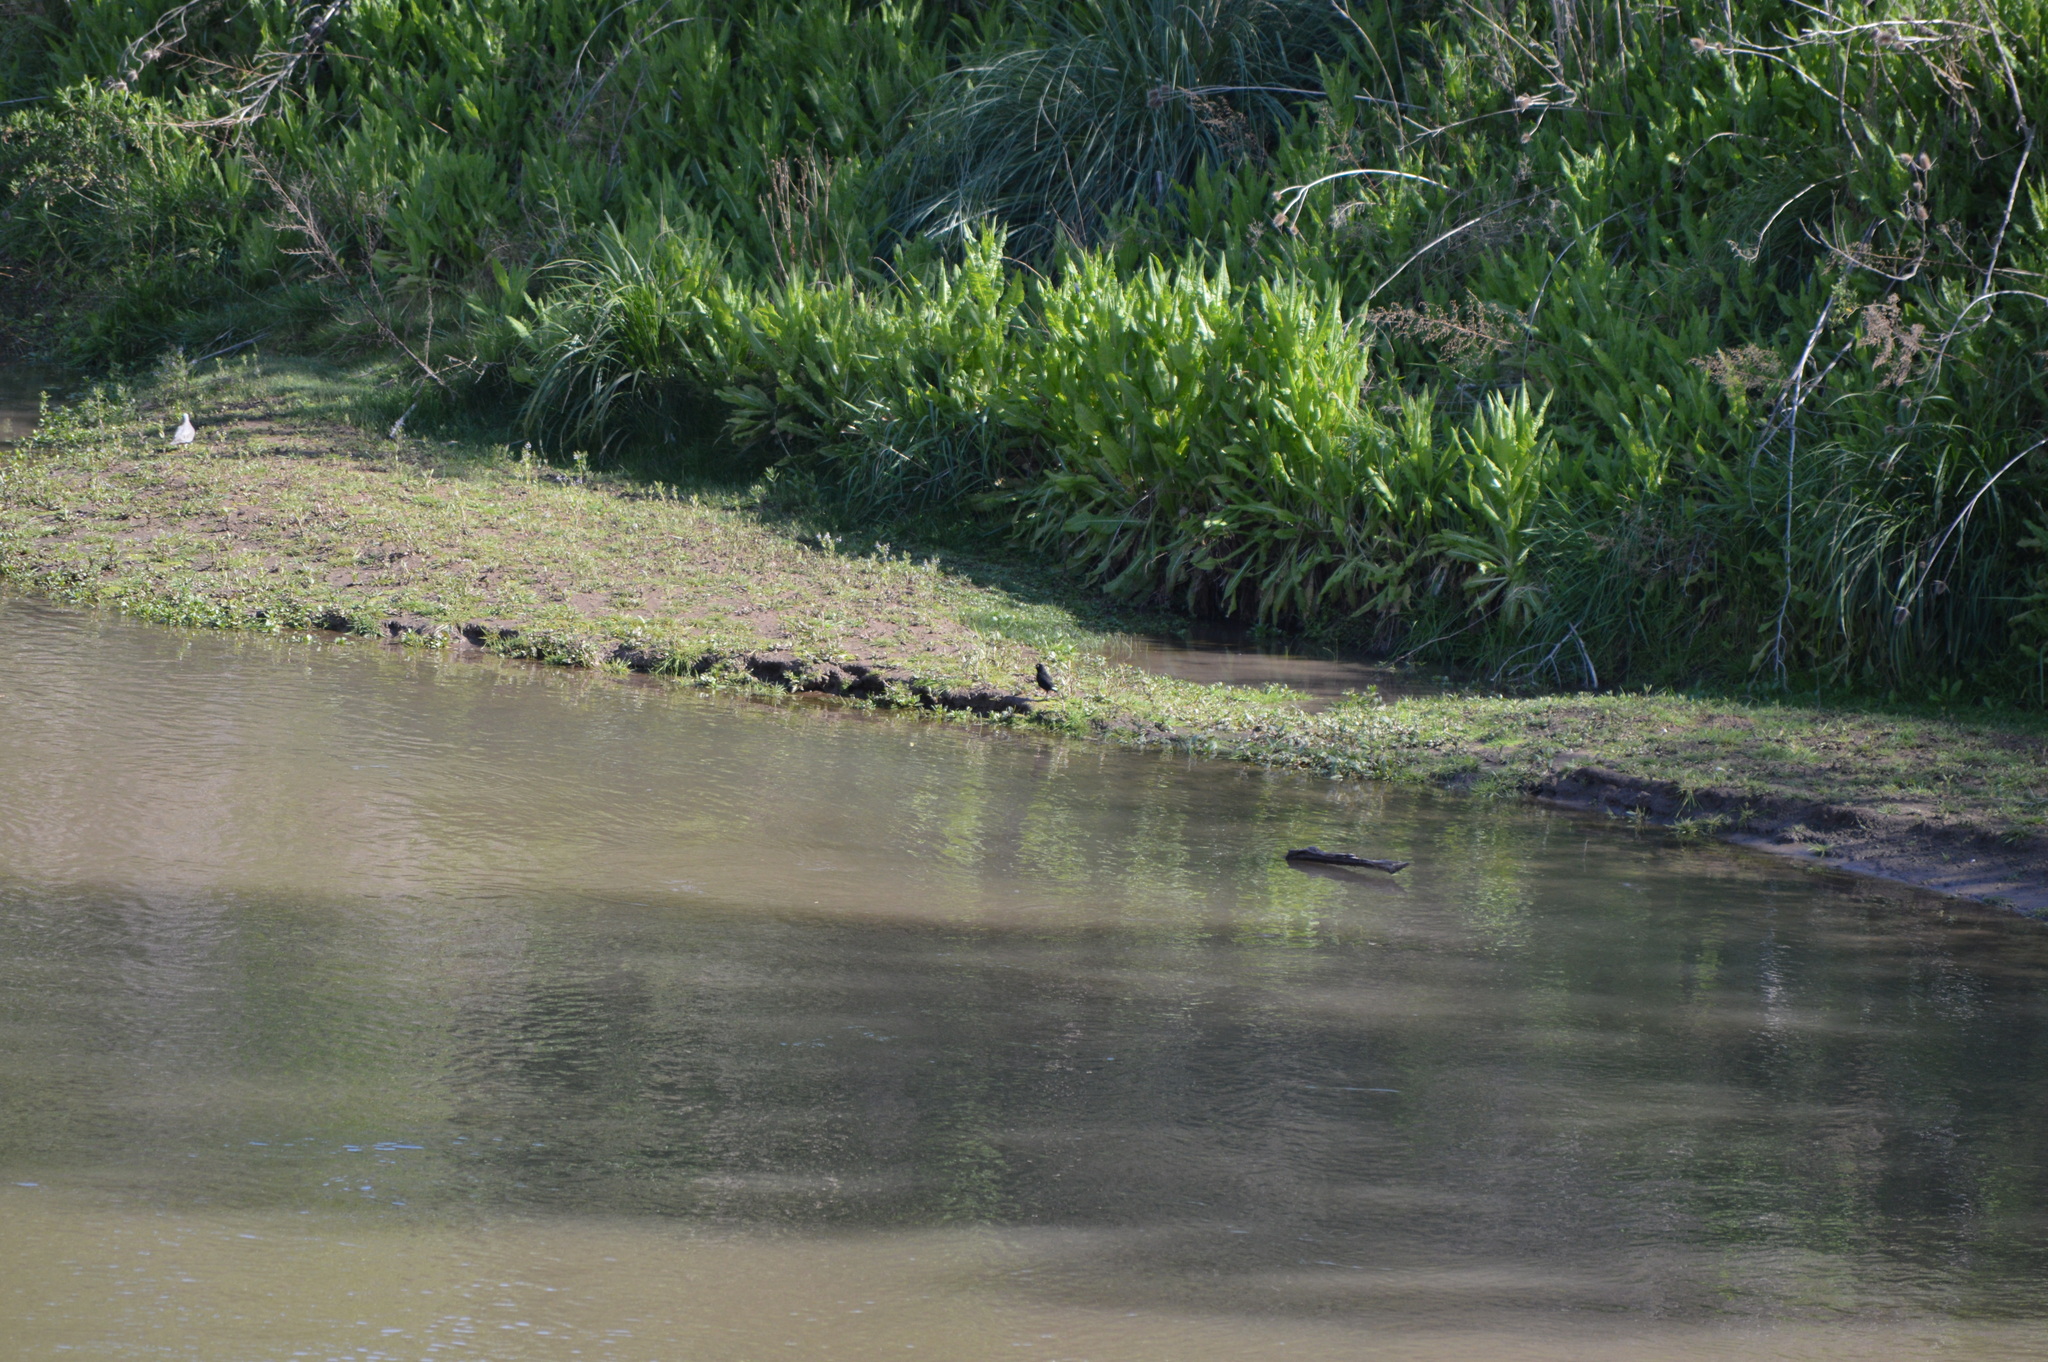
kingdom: Animalia
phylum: Chordata
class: Aves
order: Passeriformes
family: Tyrannidae
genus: Hymenops
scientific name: Hymenops perspicillatus
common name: Spectacled tyrant
